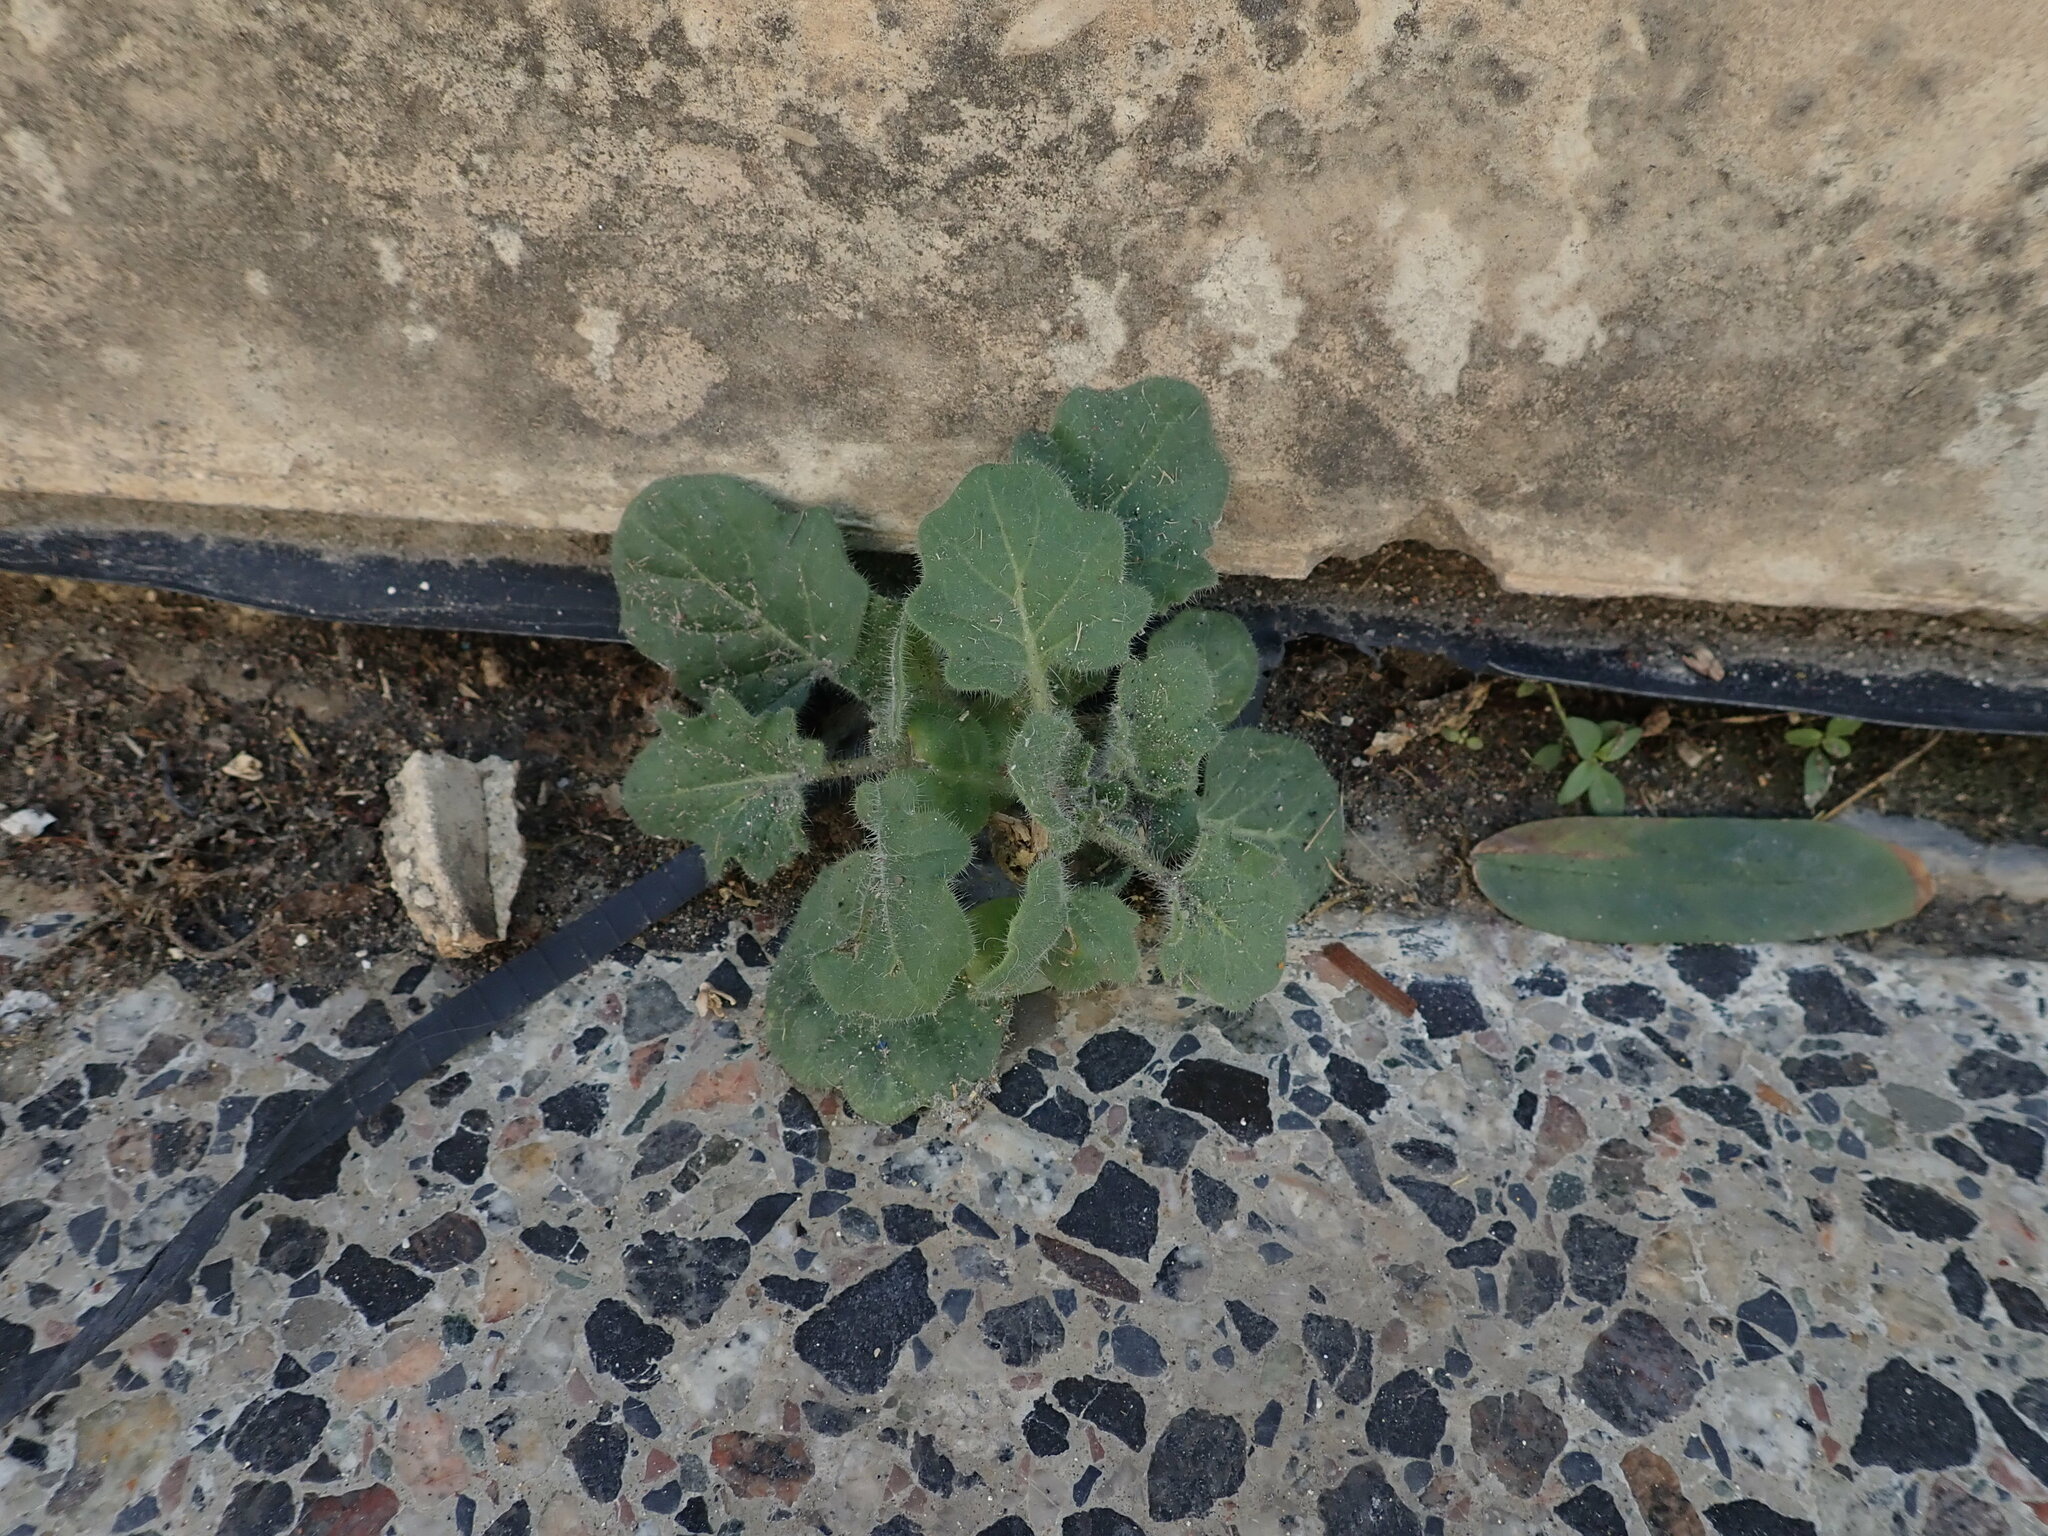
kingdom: Plantae
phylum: Tracheophyta
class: Magnoliopsida
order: Solanales
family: Solanaceae
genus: Hyoscyamus
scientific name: Hyoscyamus albus
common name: White henbane
